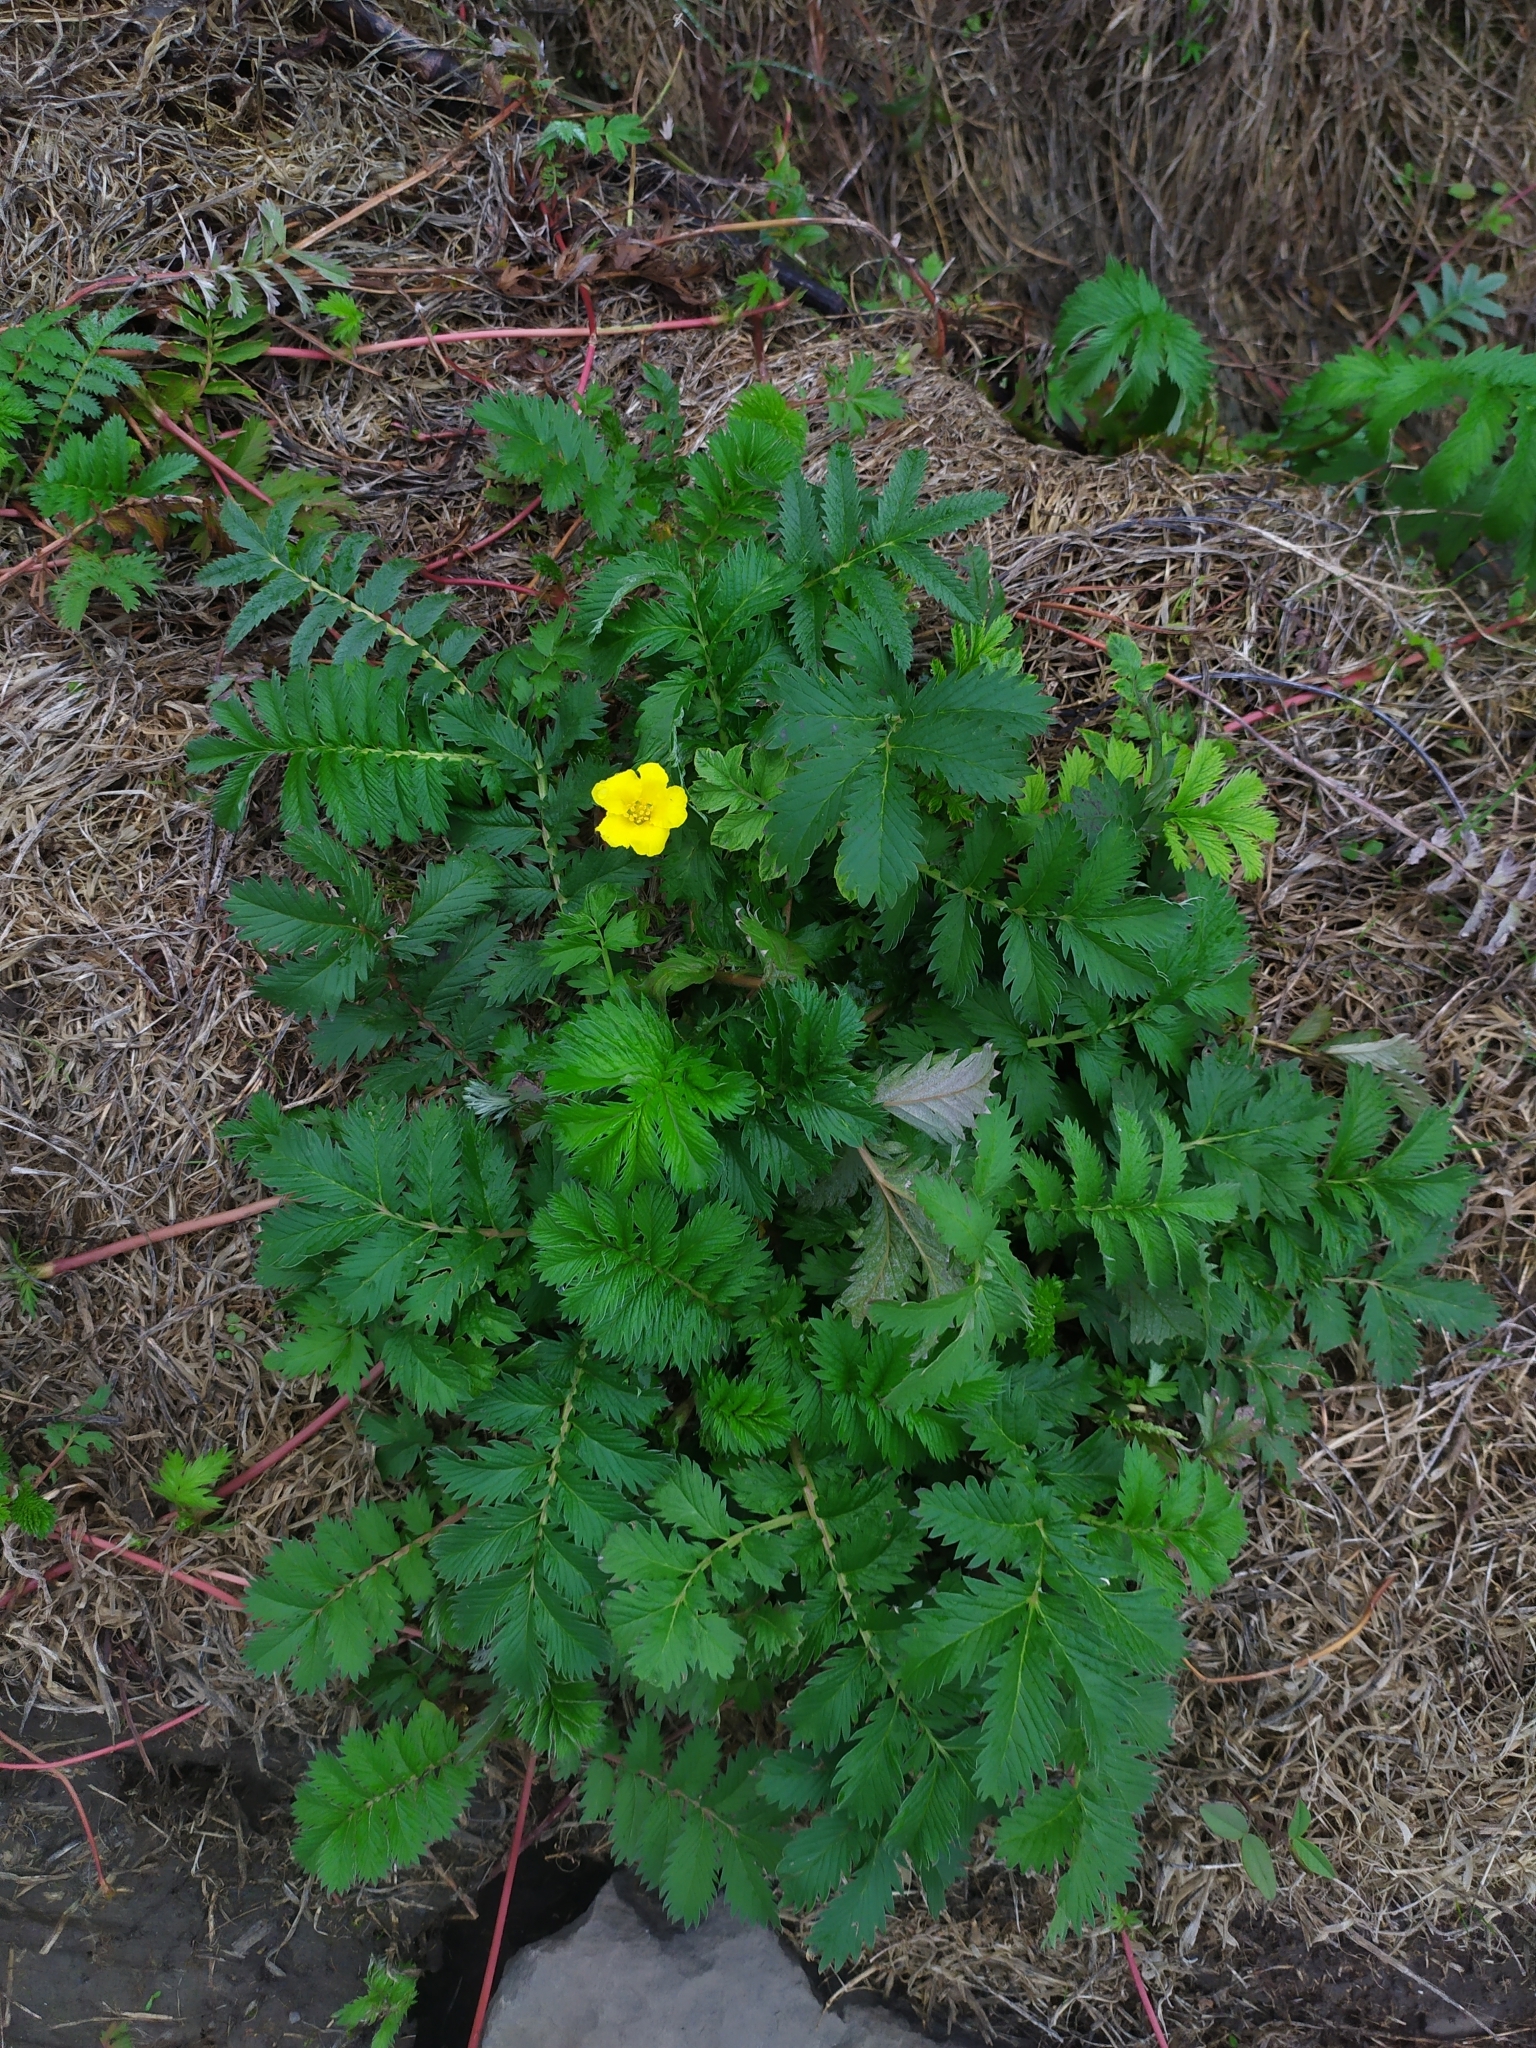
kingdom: Plantae
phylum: Tracheophyta
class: Magnoliopsida
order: Rosales
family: Rosaceae
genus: Argentina
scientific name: Argentina anserina
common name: Common silverweed
